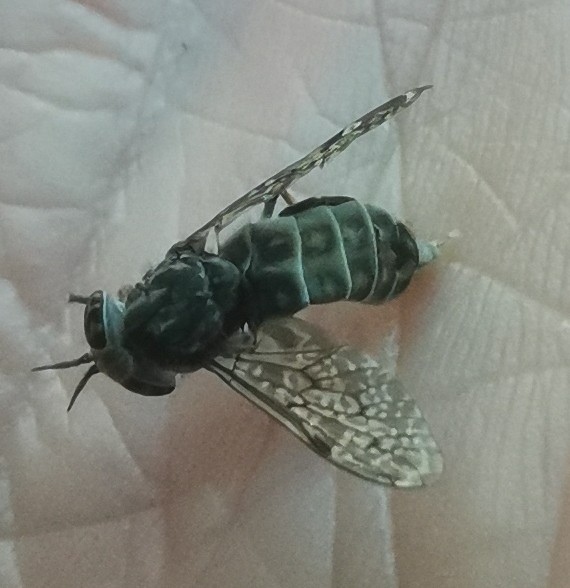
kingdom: Animalia
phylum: Arthropoda
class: Insecta
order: Diptera
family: Tabanidae
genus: Haematopota
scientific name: Haematopota pluvialis
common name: Common horse fly
